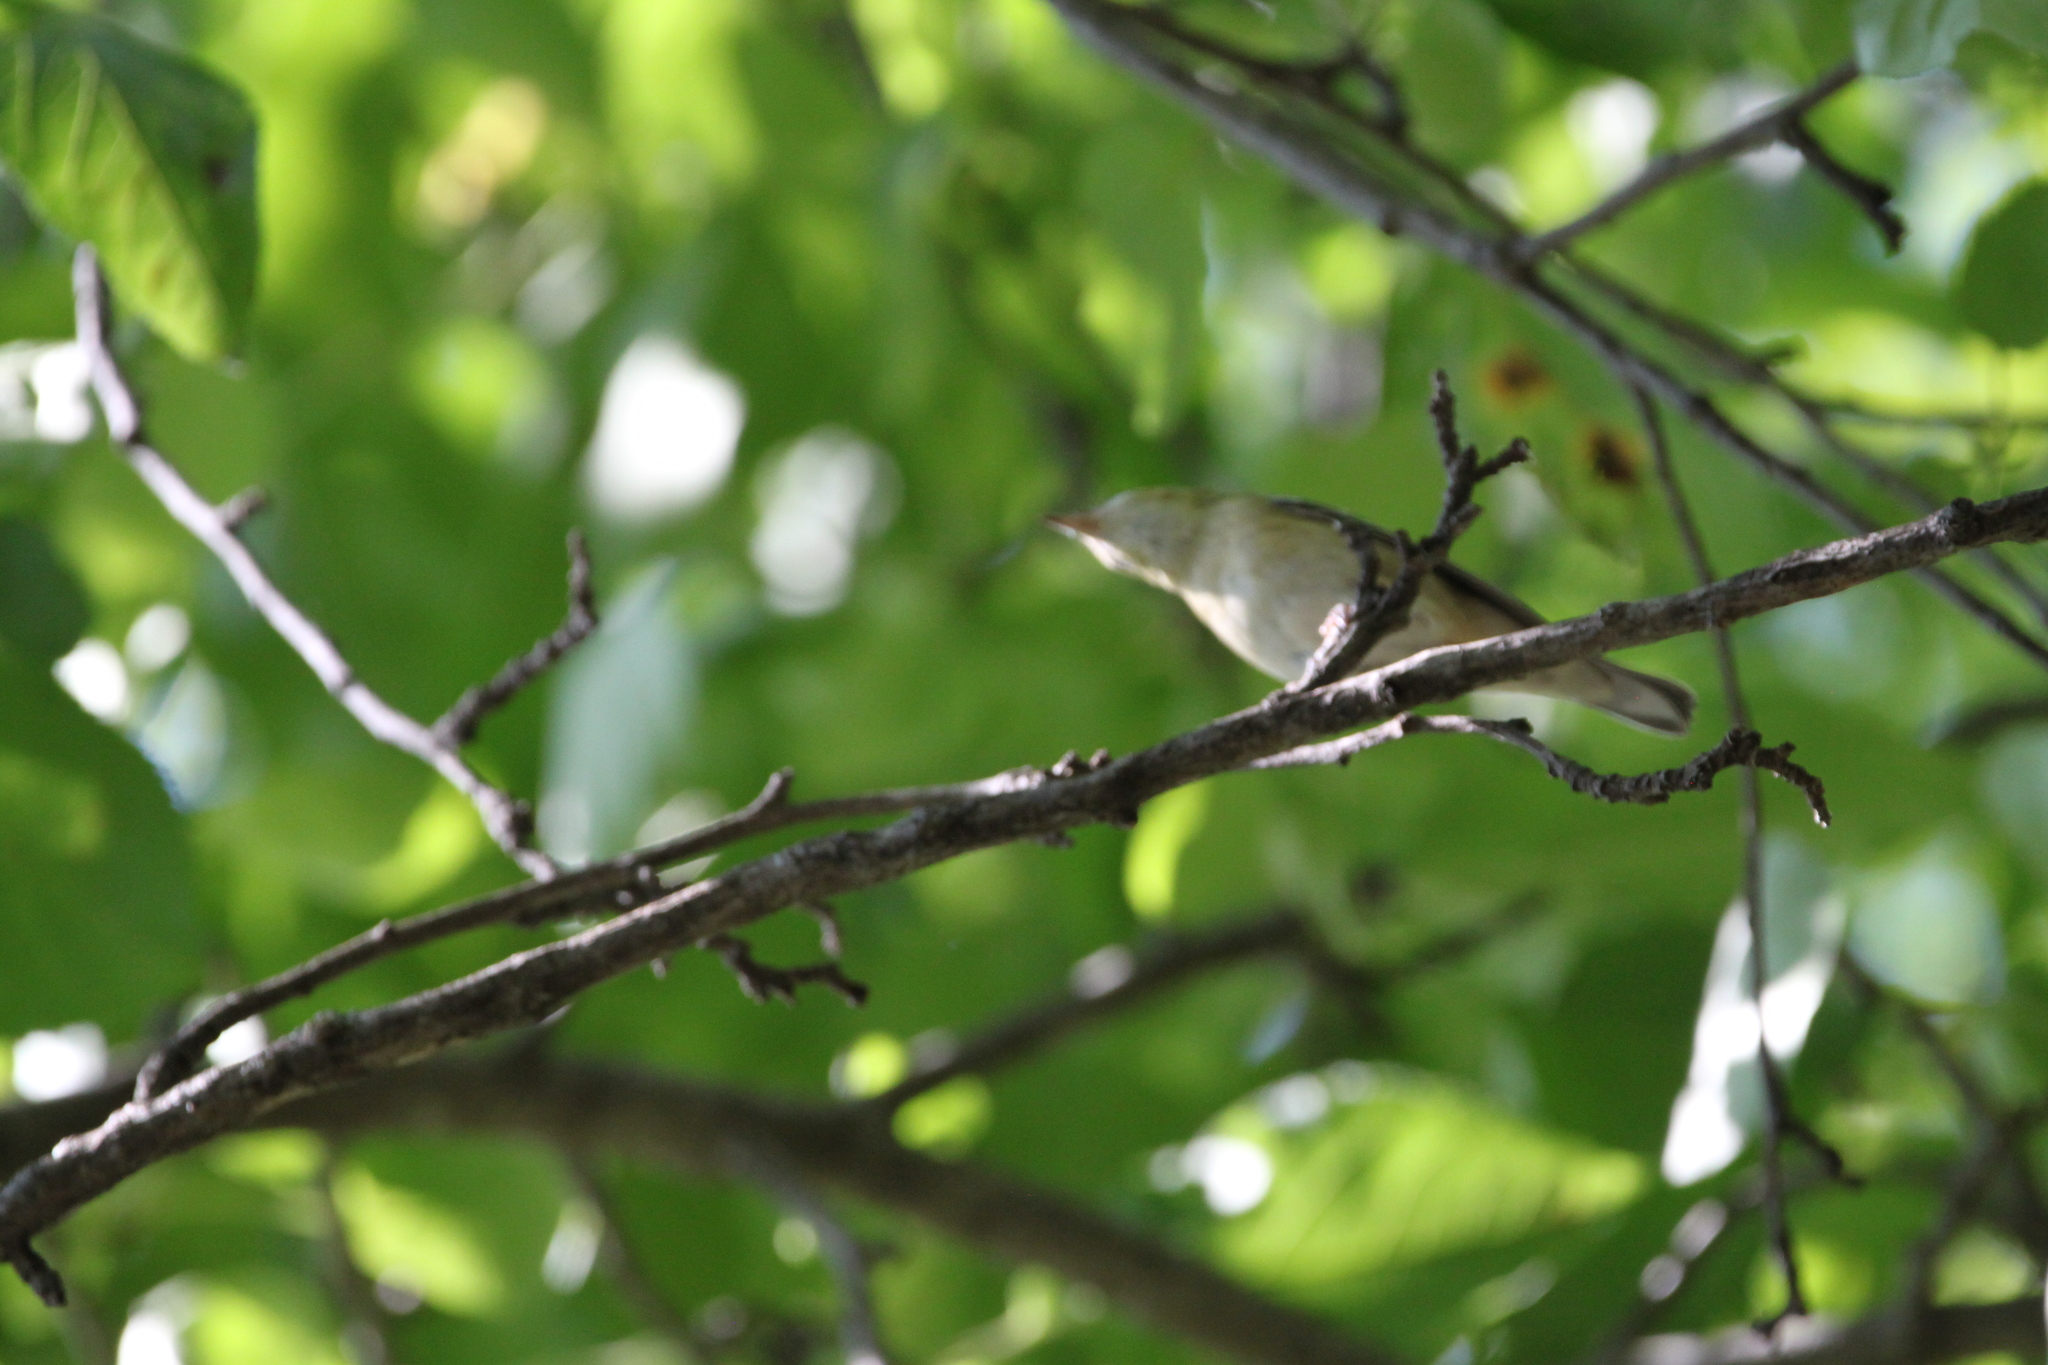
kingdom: Animalia
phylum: Chordata
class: Aves
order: Passeriformes
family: Parulidae
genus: Setophaga
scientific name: Setophaga castanea
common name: Bay-breasted warbler
